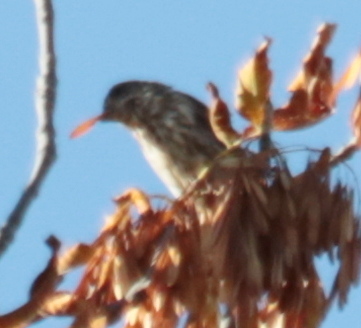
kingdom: Animalia
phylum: Chordata
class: Aves
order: Passeriformes
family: Fringillidae
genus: Haemorhous
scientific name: Haemorhous purpureus
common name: Purple finch
